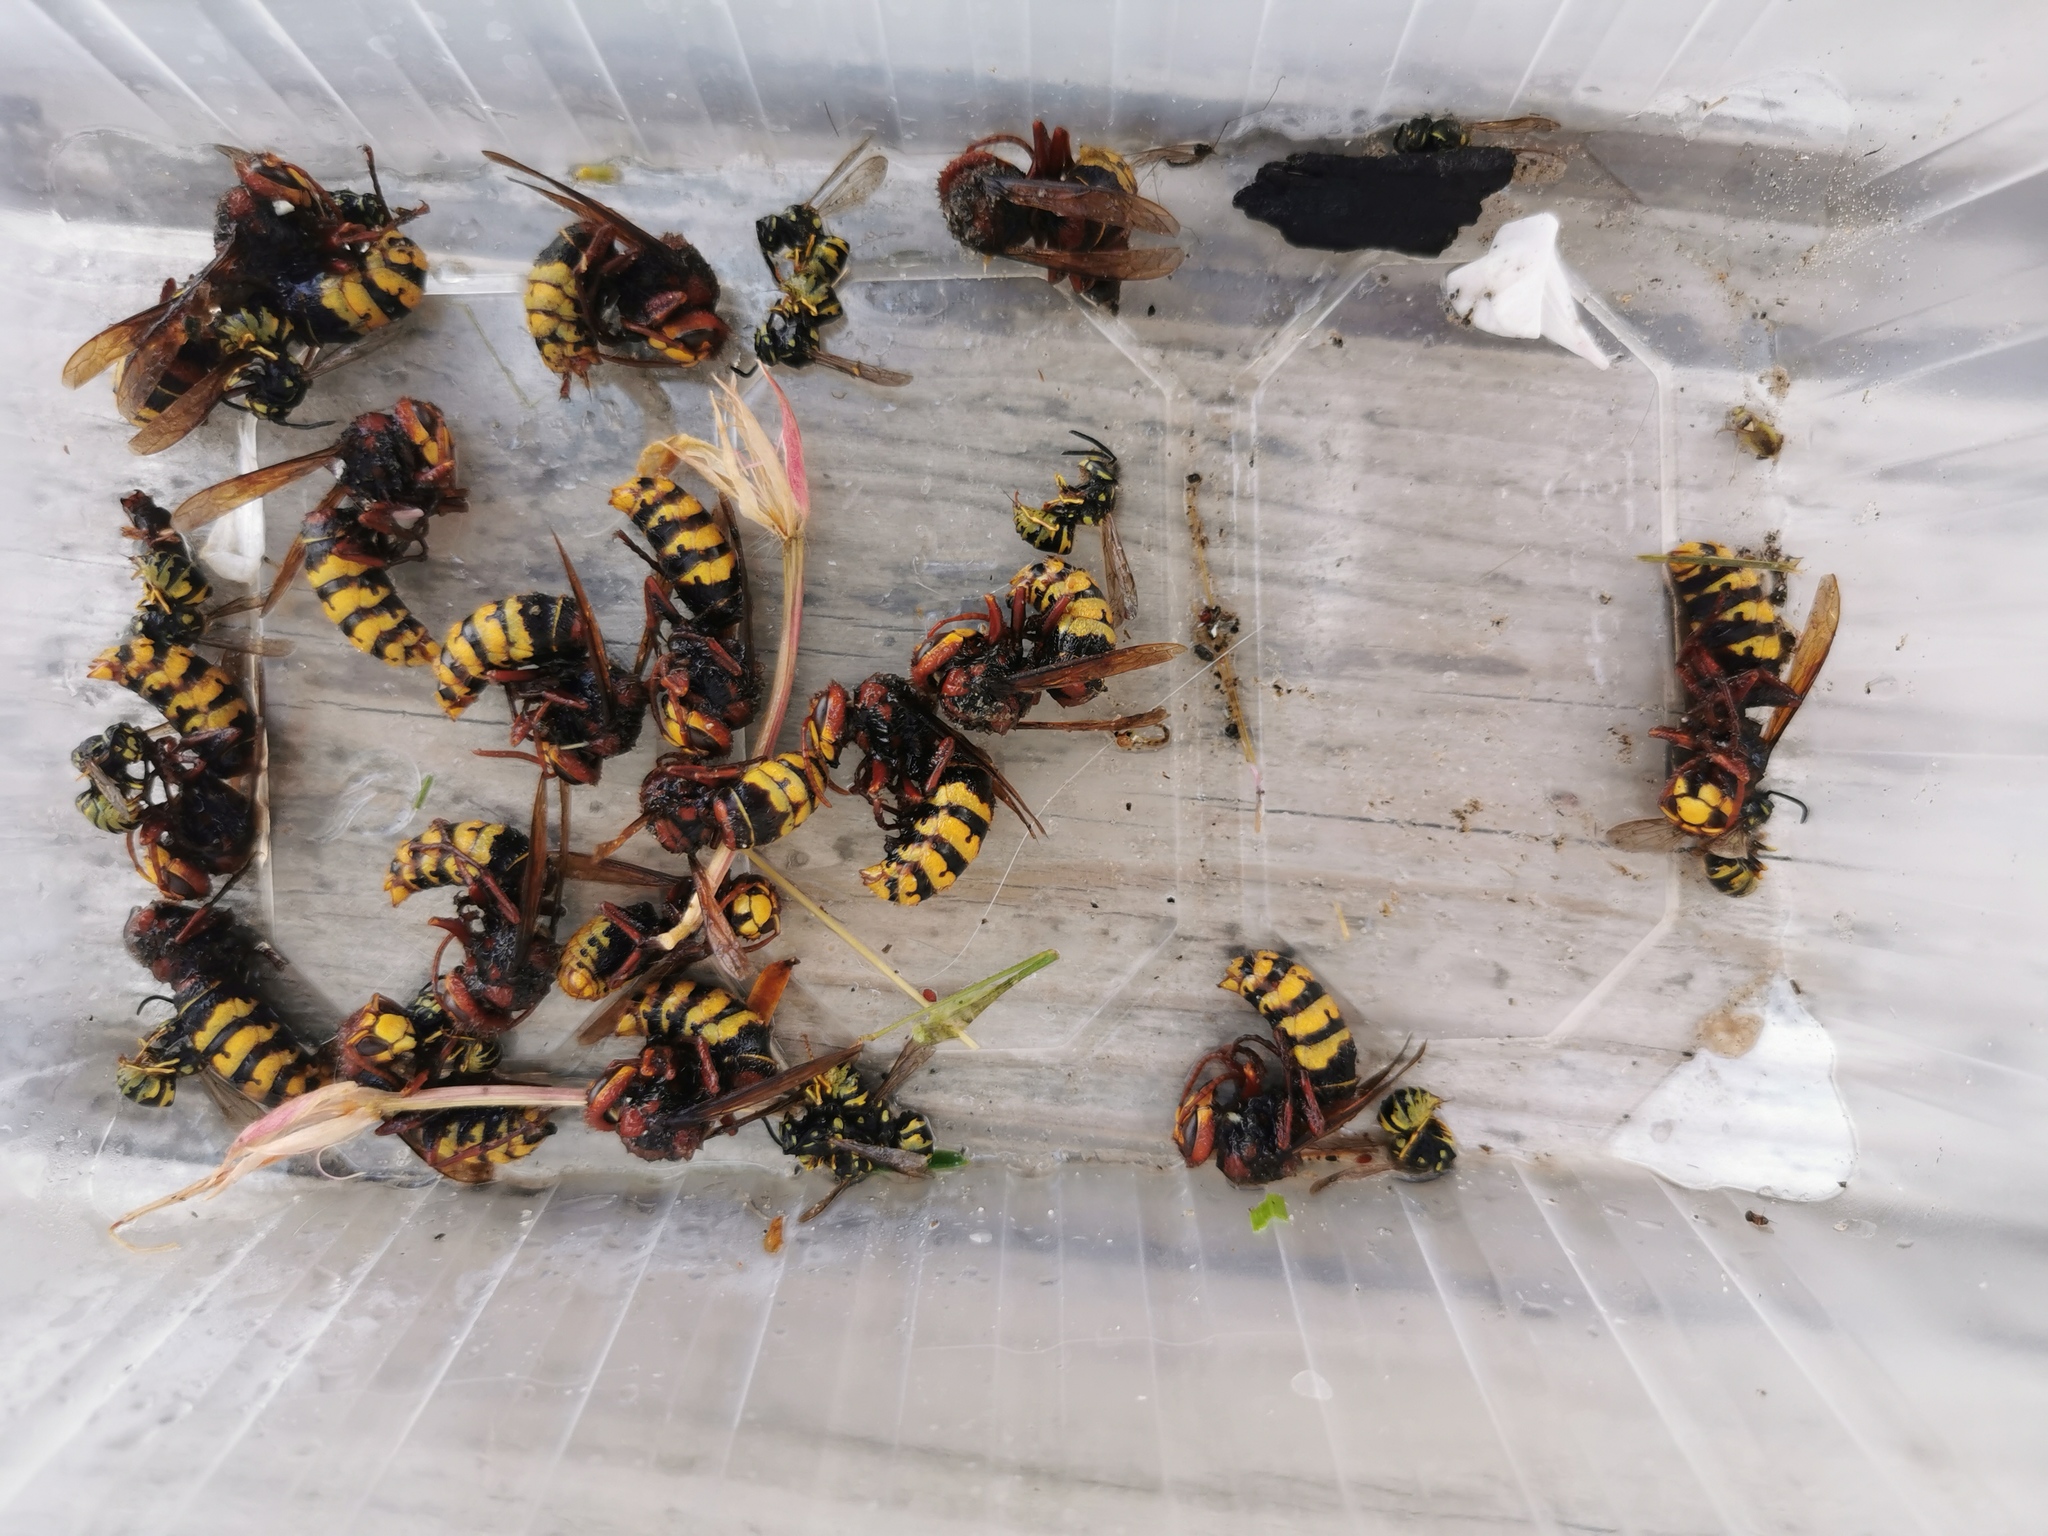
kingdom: Animalia
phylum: Arthropoda
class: Insecta
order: Hymenoptera
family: Vespidae
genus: Vespa
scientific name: Vespa crabro
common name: Hornet
